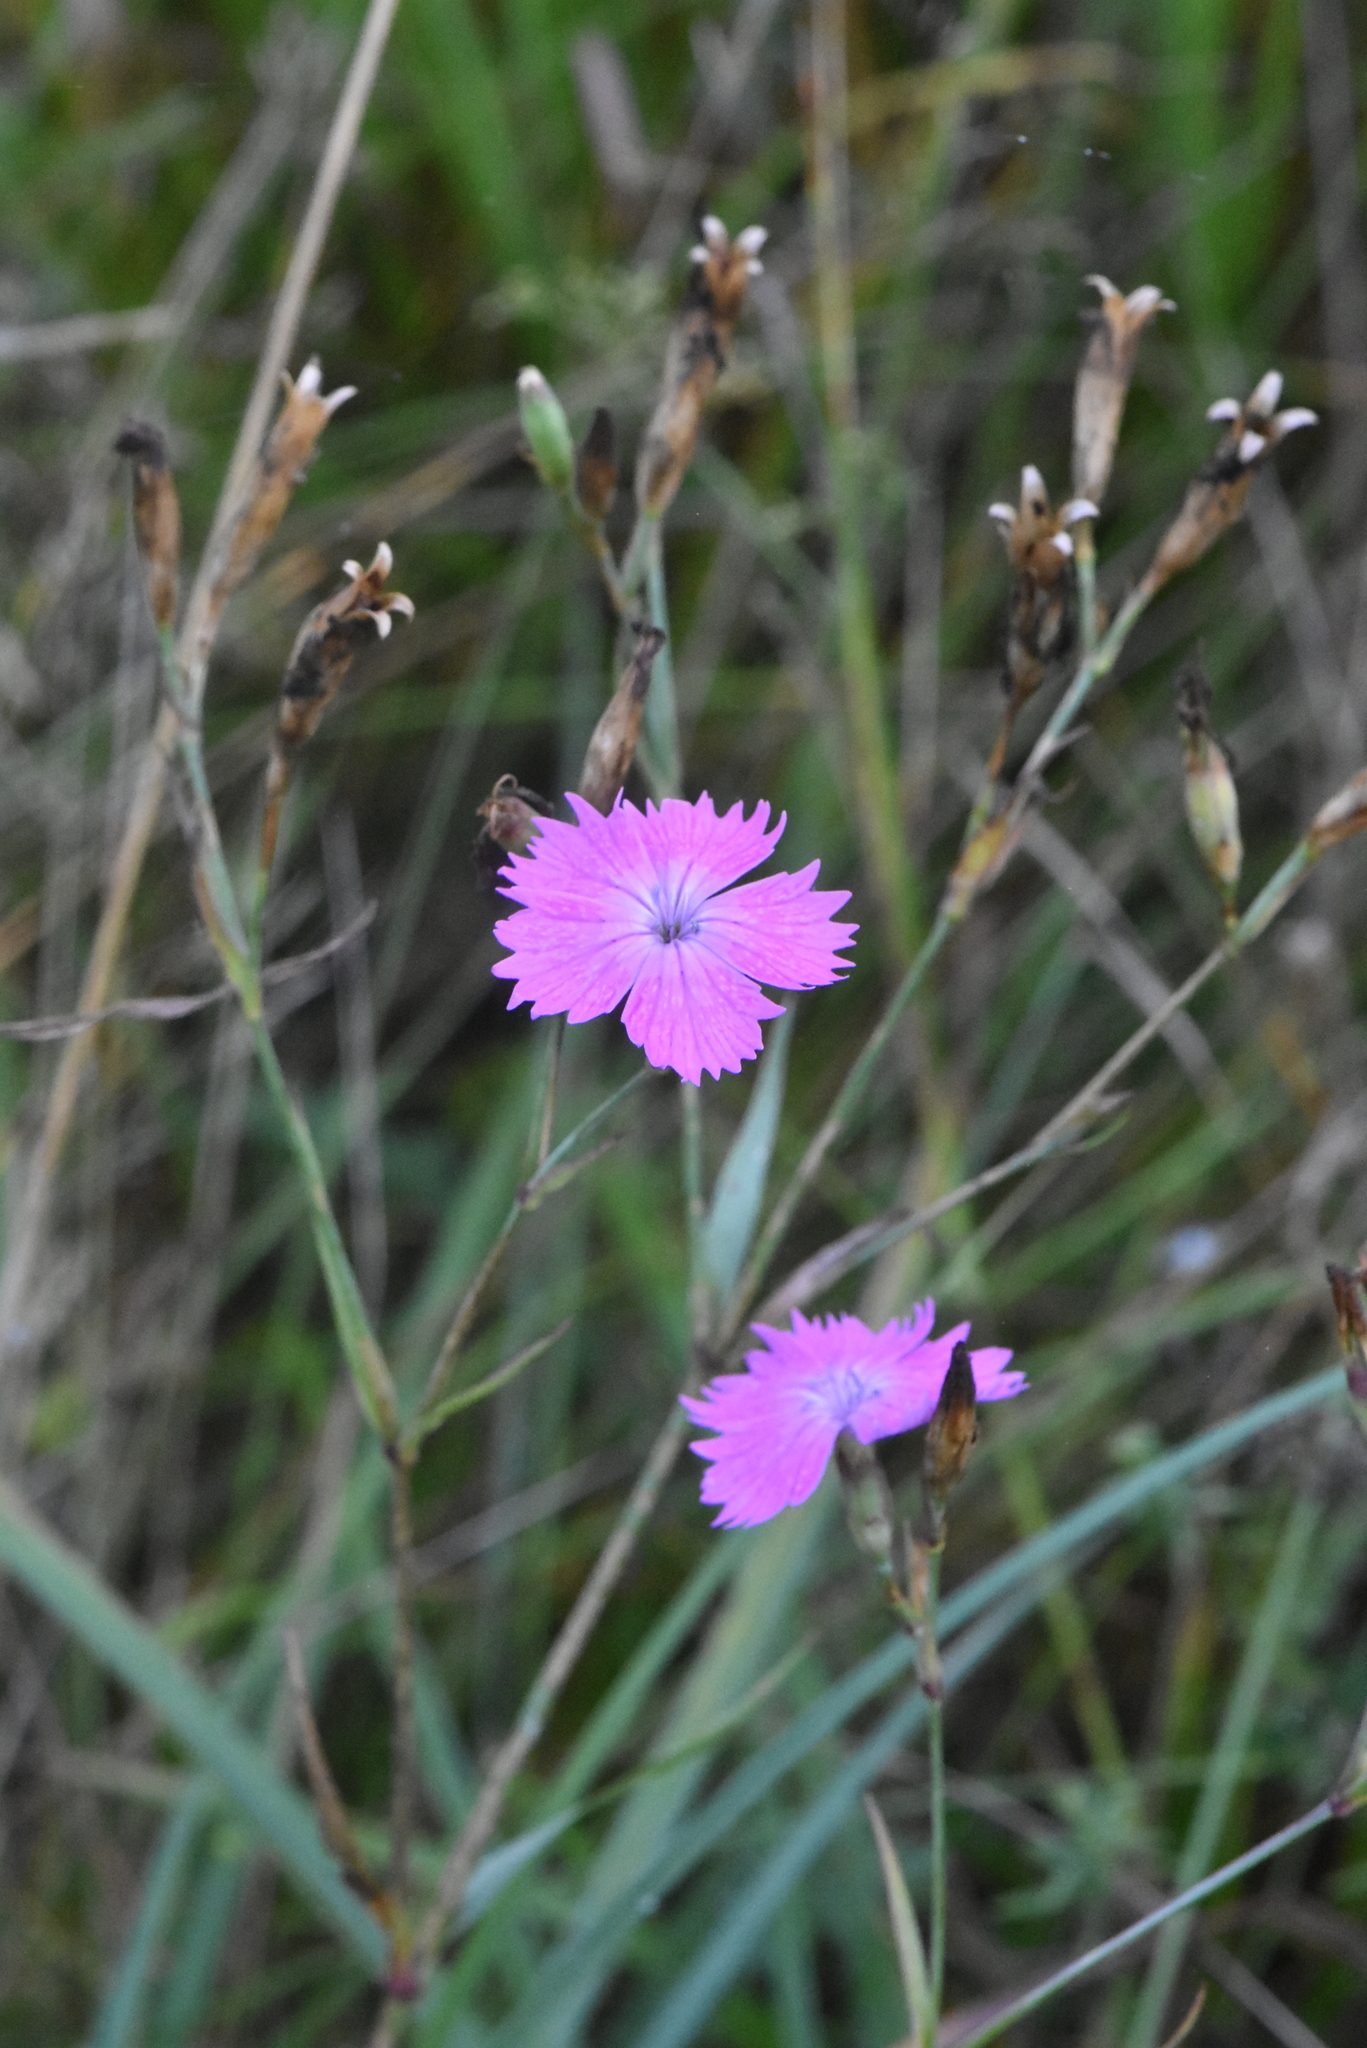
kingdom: Plantae
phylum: Tracheophyta
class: Magnoliopsida
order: Caryophyllales
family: Caryophyllaceae
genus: Dianthus
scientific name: Dianthus chinensis
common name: Rainbow pink
